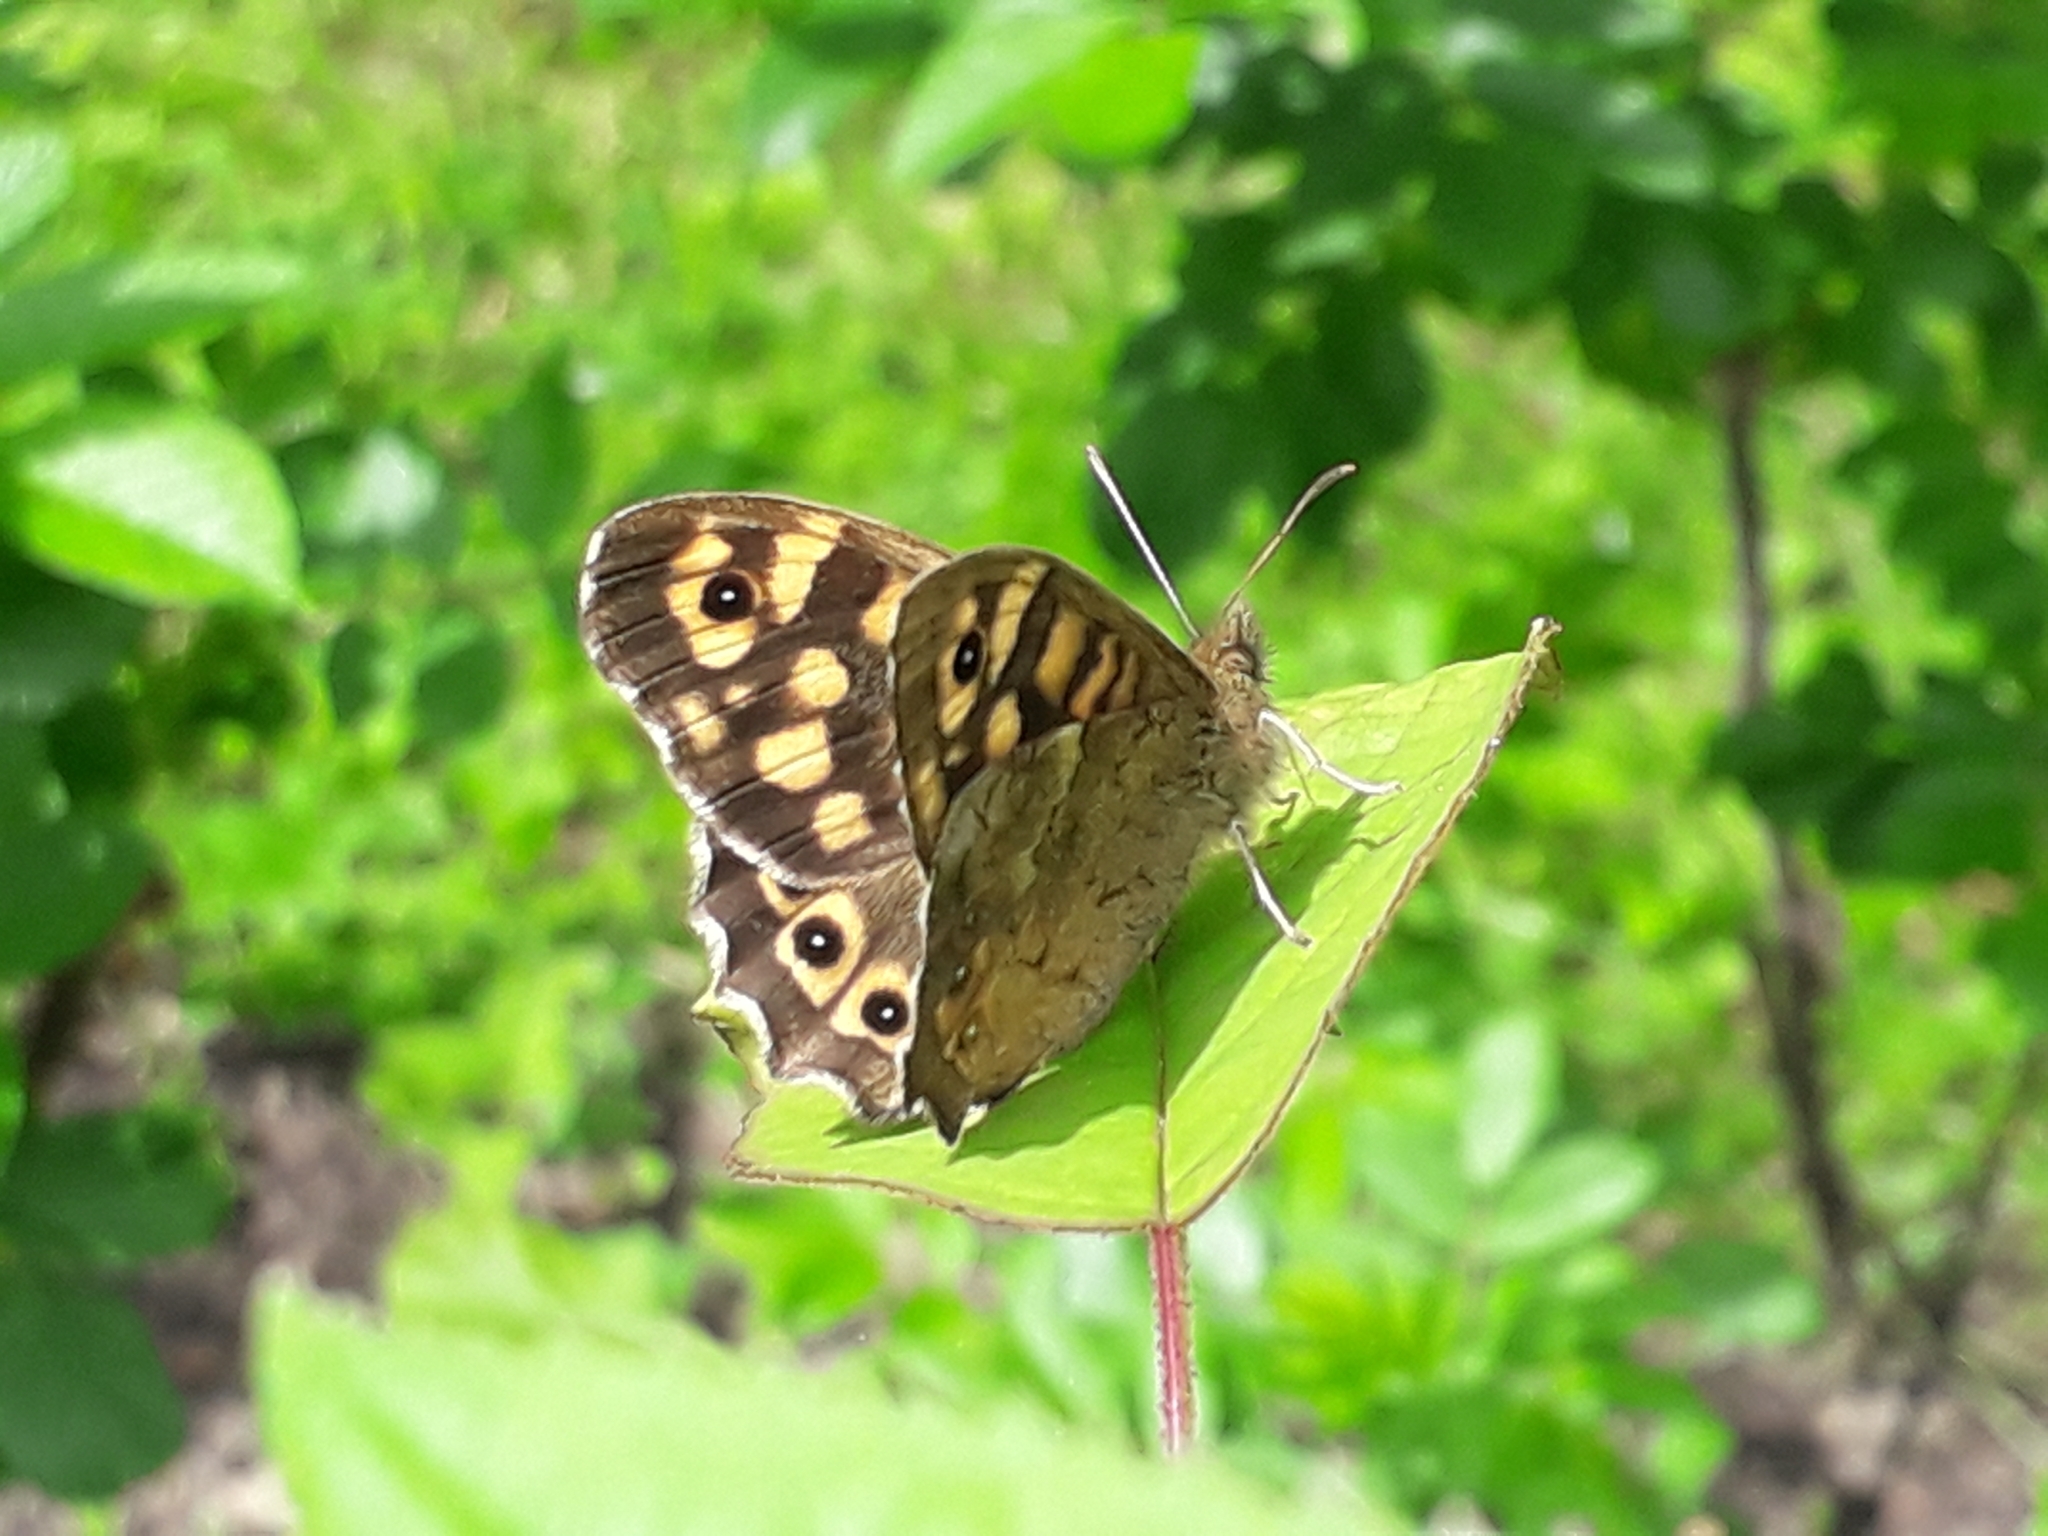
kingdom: Animalia
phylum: Arthropoda
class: Insecta
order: Lepidoptera
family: Nymphalidae
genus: Pararge
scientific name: Pararge aegeria
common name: Speckled wood
